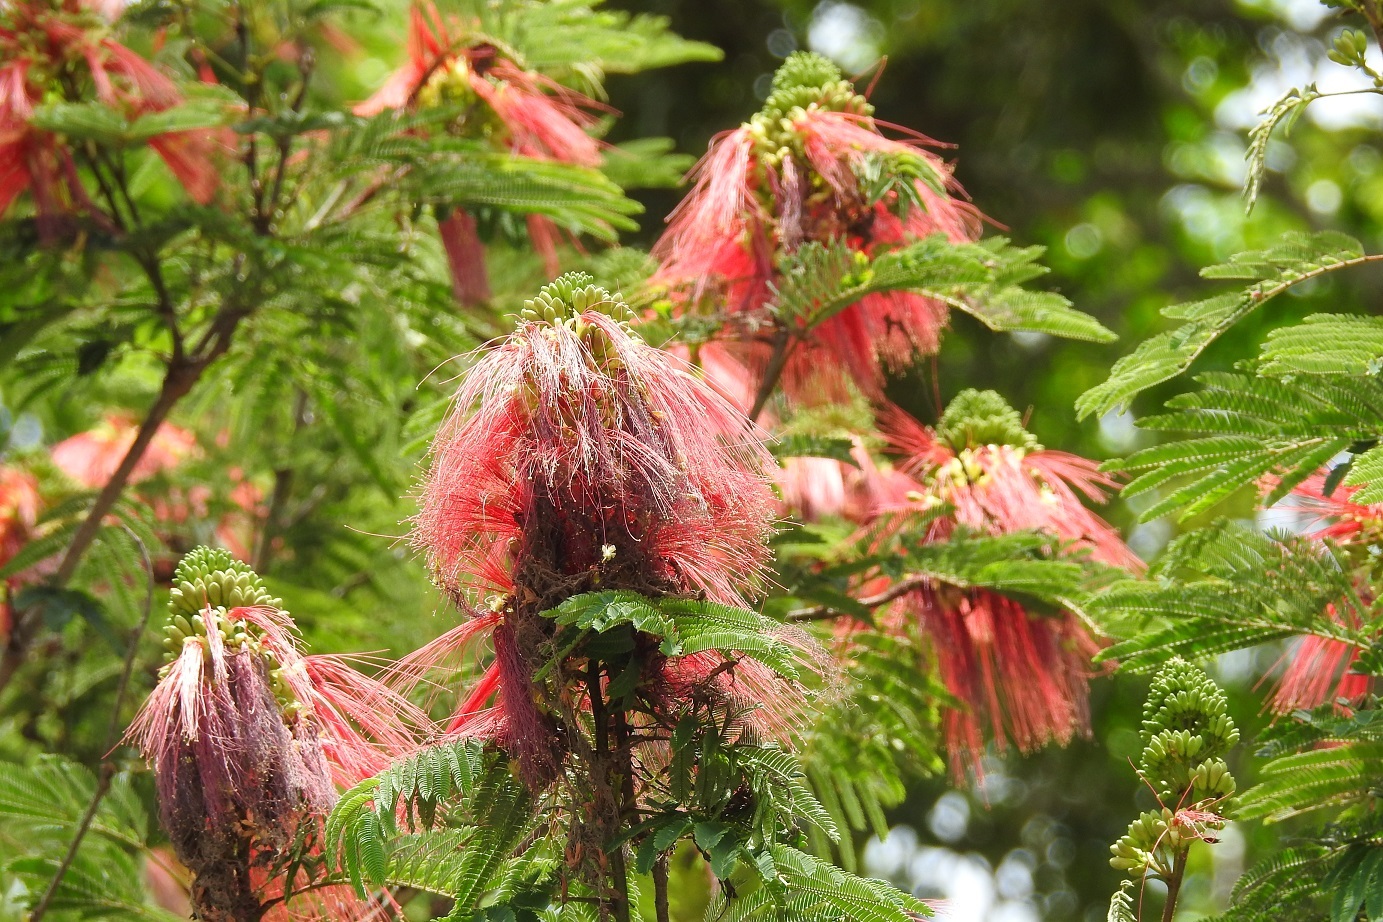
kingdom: Plantae
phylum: Tracheophyta
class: Magnoliopsida
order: Fabales
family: Fabaceae
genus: Calliandra
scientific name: Calliandra houstoniana
